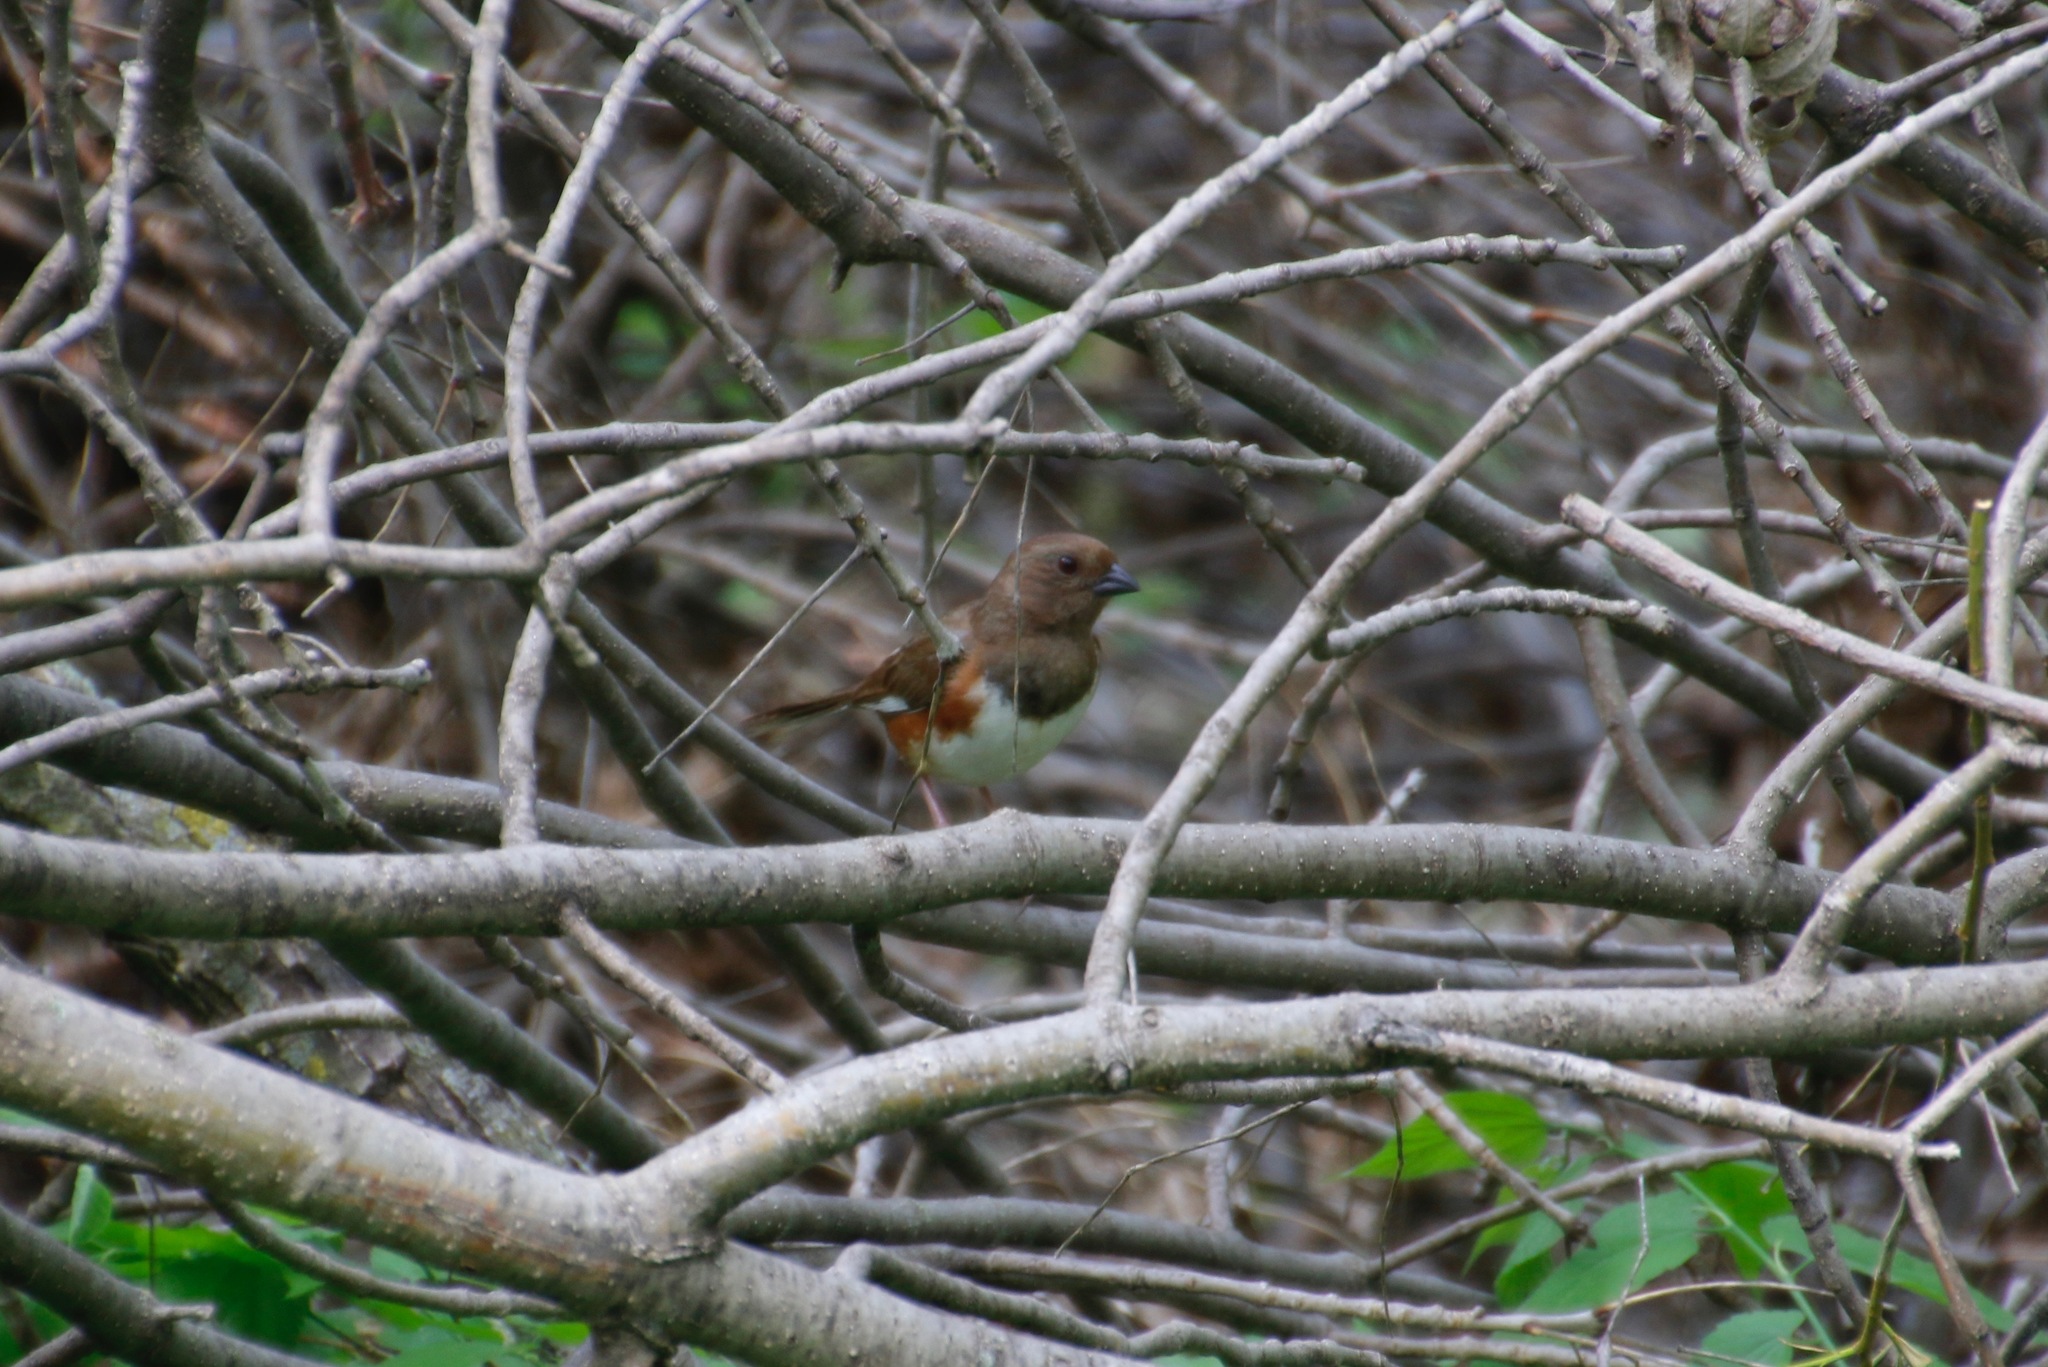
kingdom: Animalia
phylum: Chordata
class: Aves
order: Passeriformes
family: Passerellidae
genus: Pipilo
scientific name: Pipilo erythrophthalmus
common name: Eastern towhee
